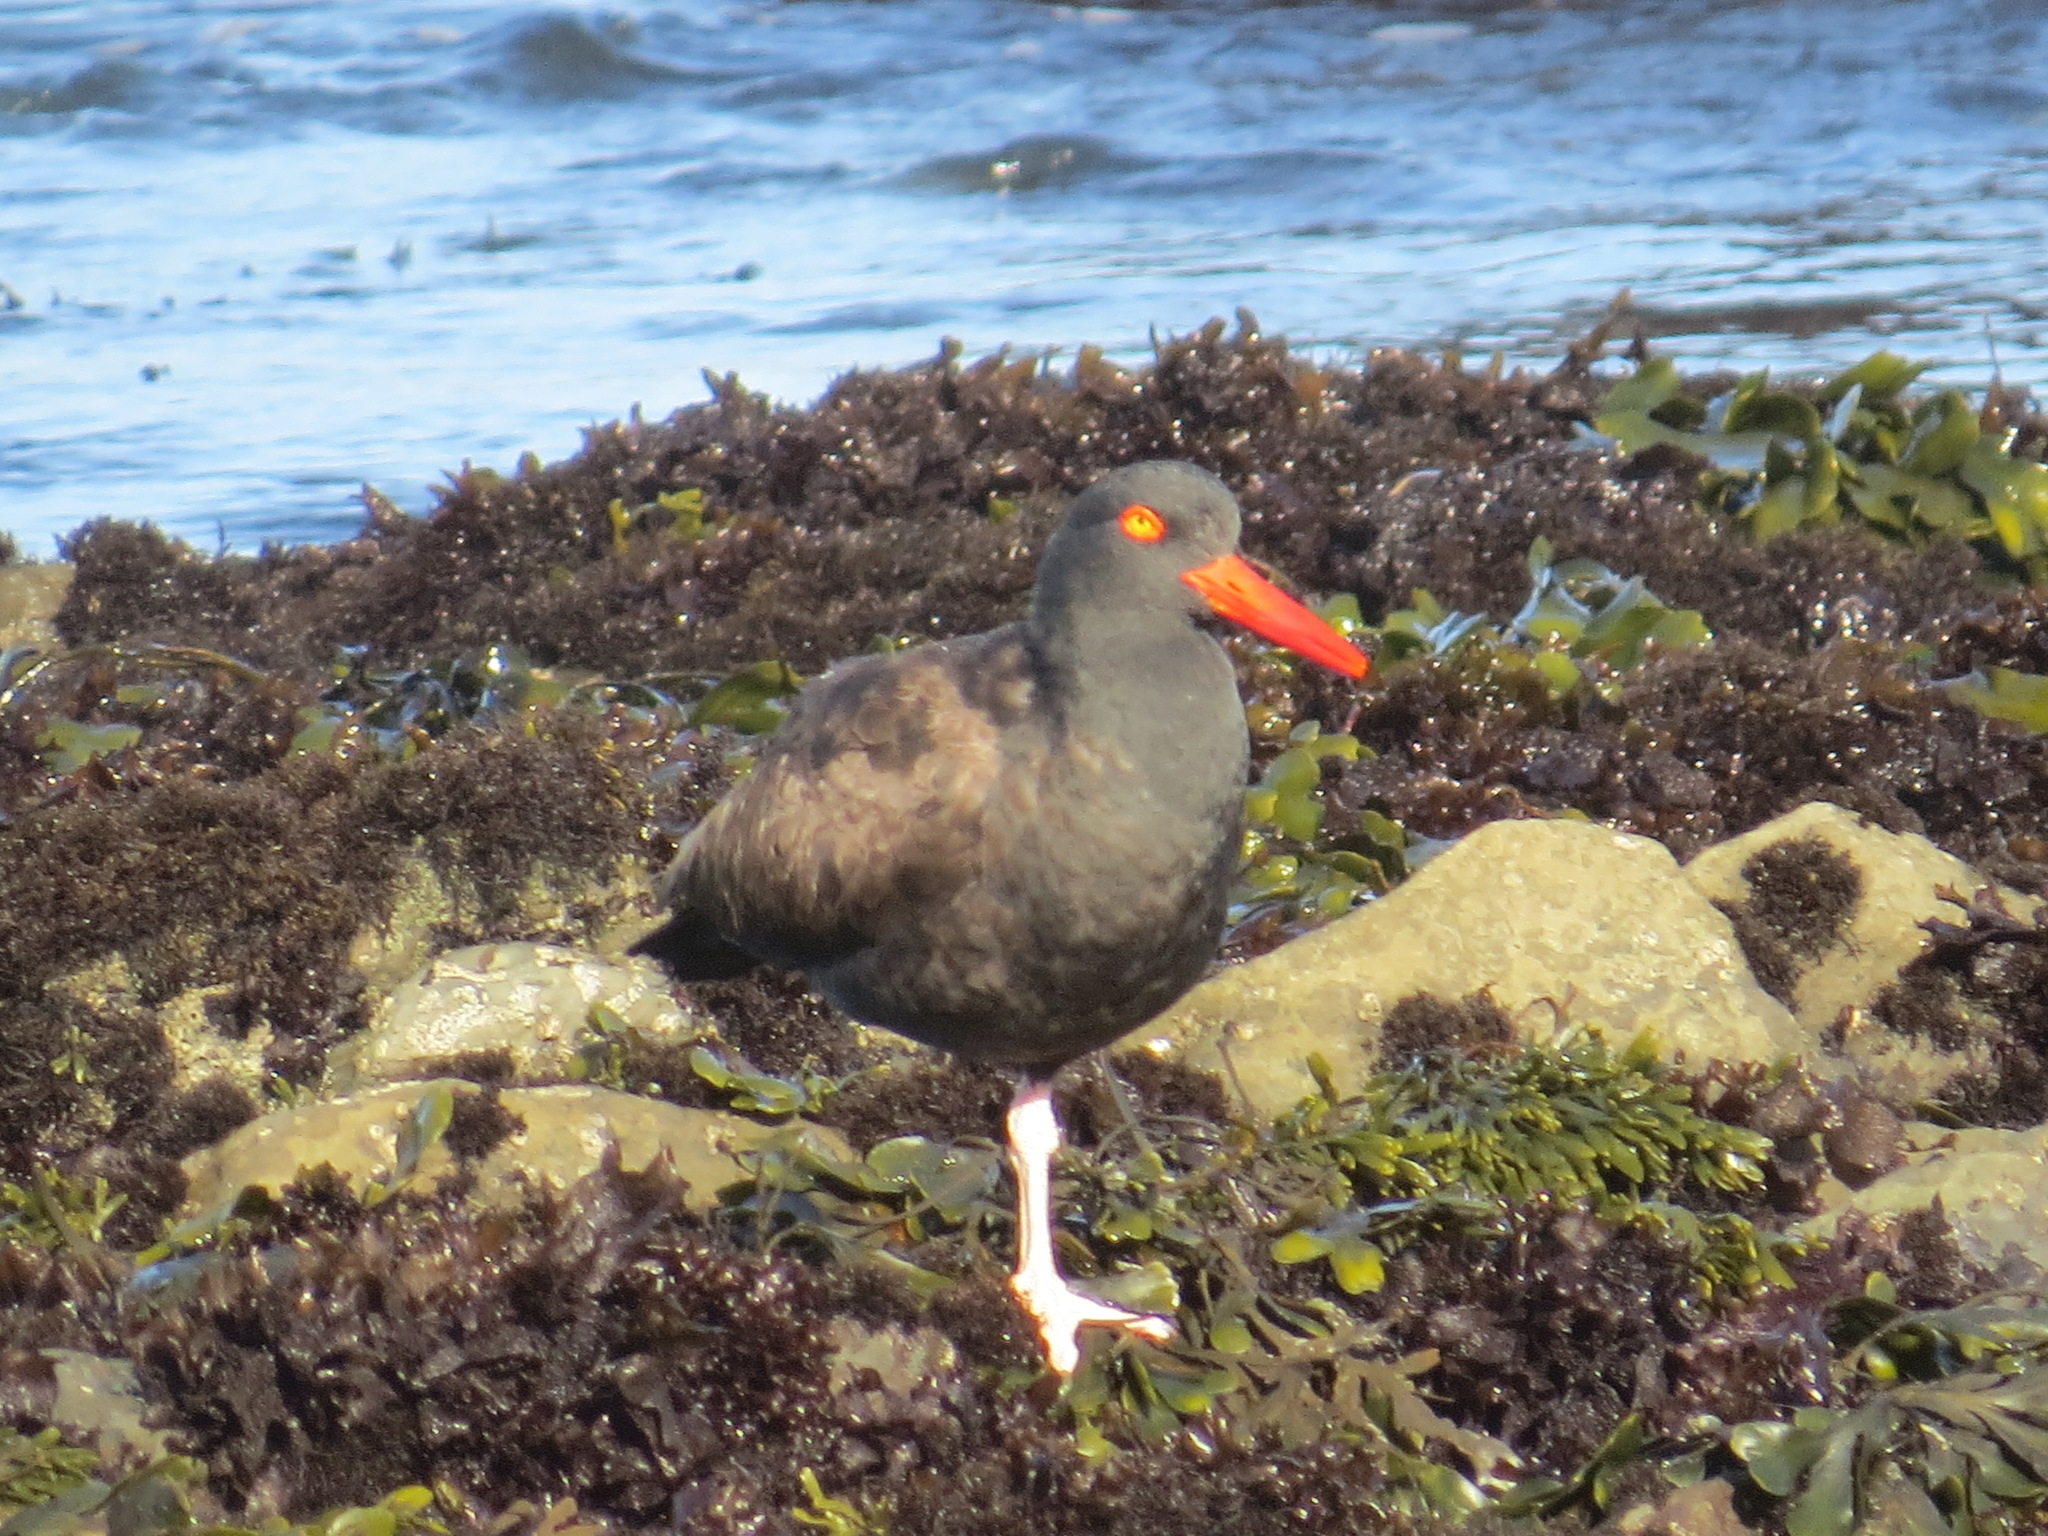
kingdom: Animalia
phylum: Chordata
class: Aves
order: Charadriiformes
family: Haematopodidae
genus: Haematopus
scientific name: Haematopus bachmani
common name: Black oystercatcher
